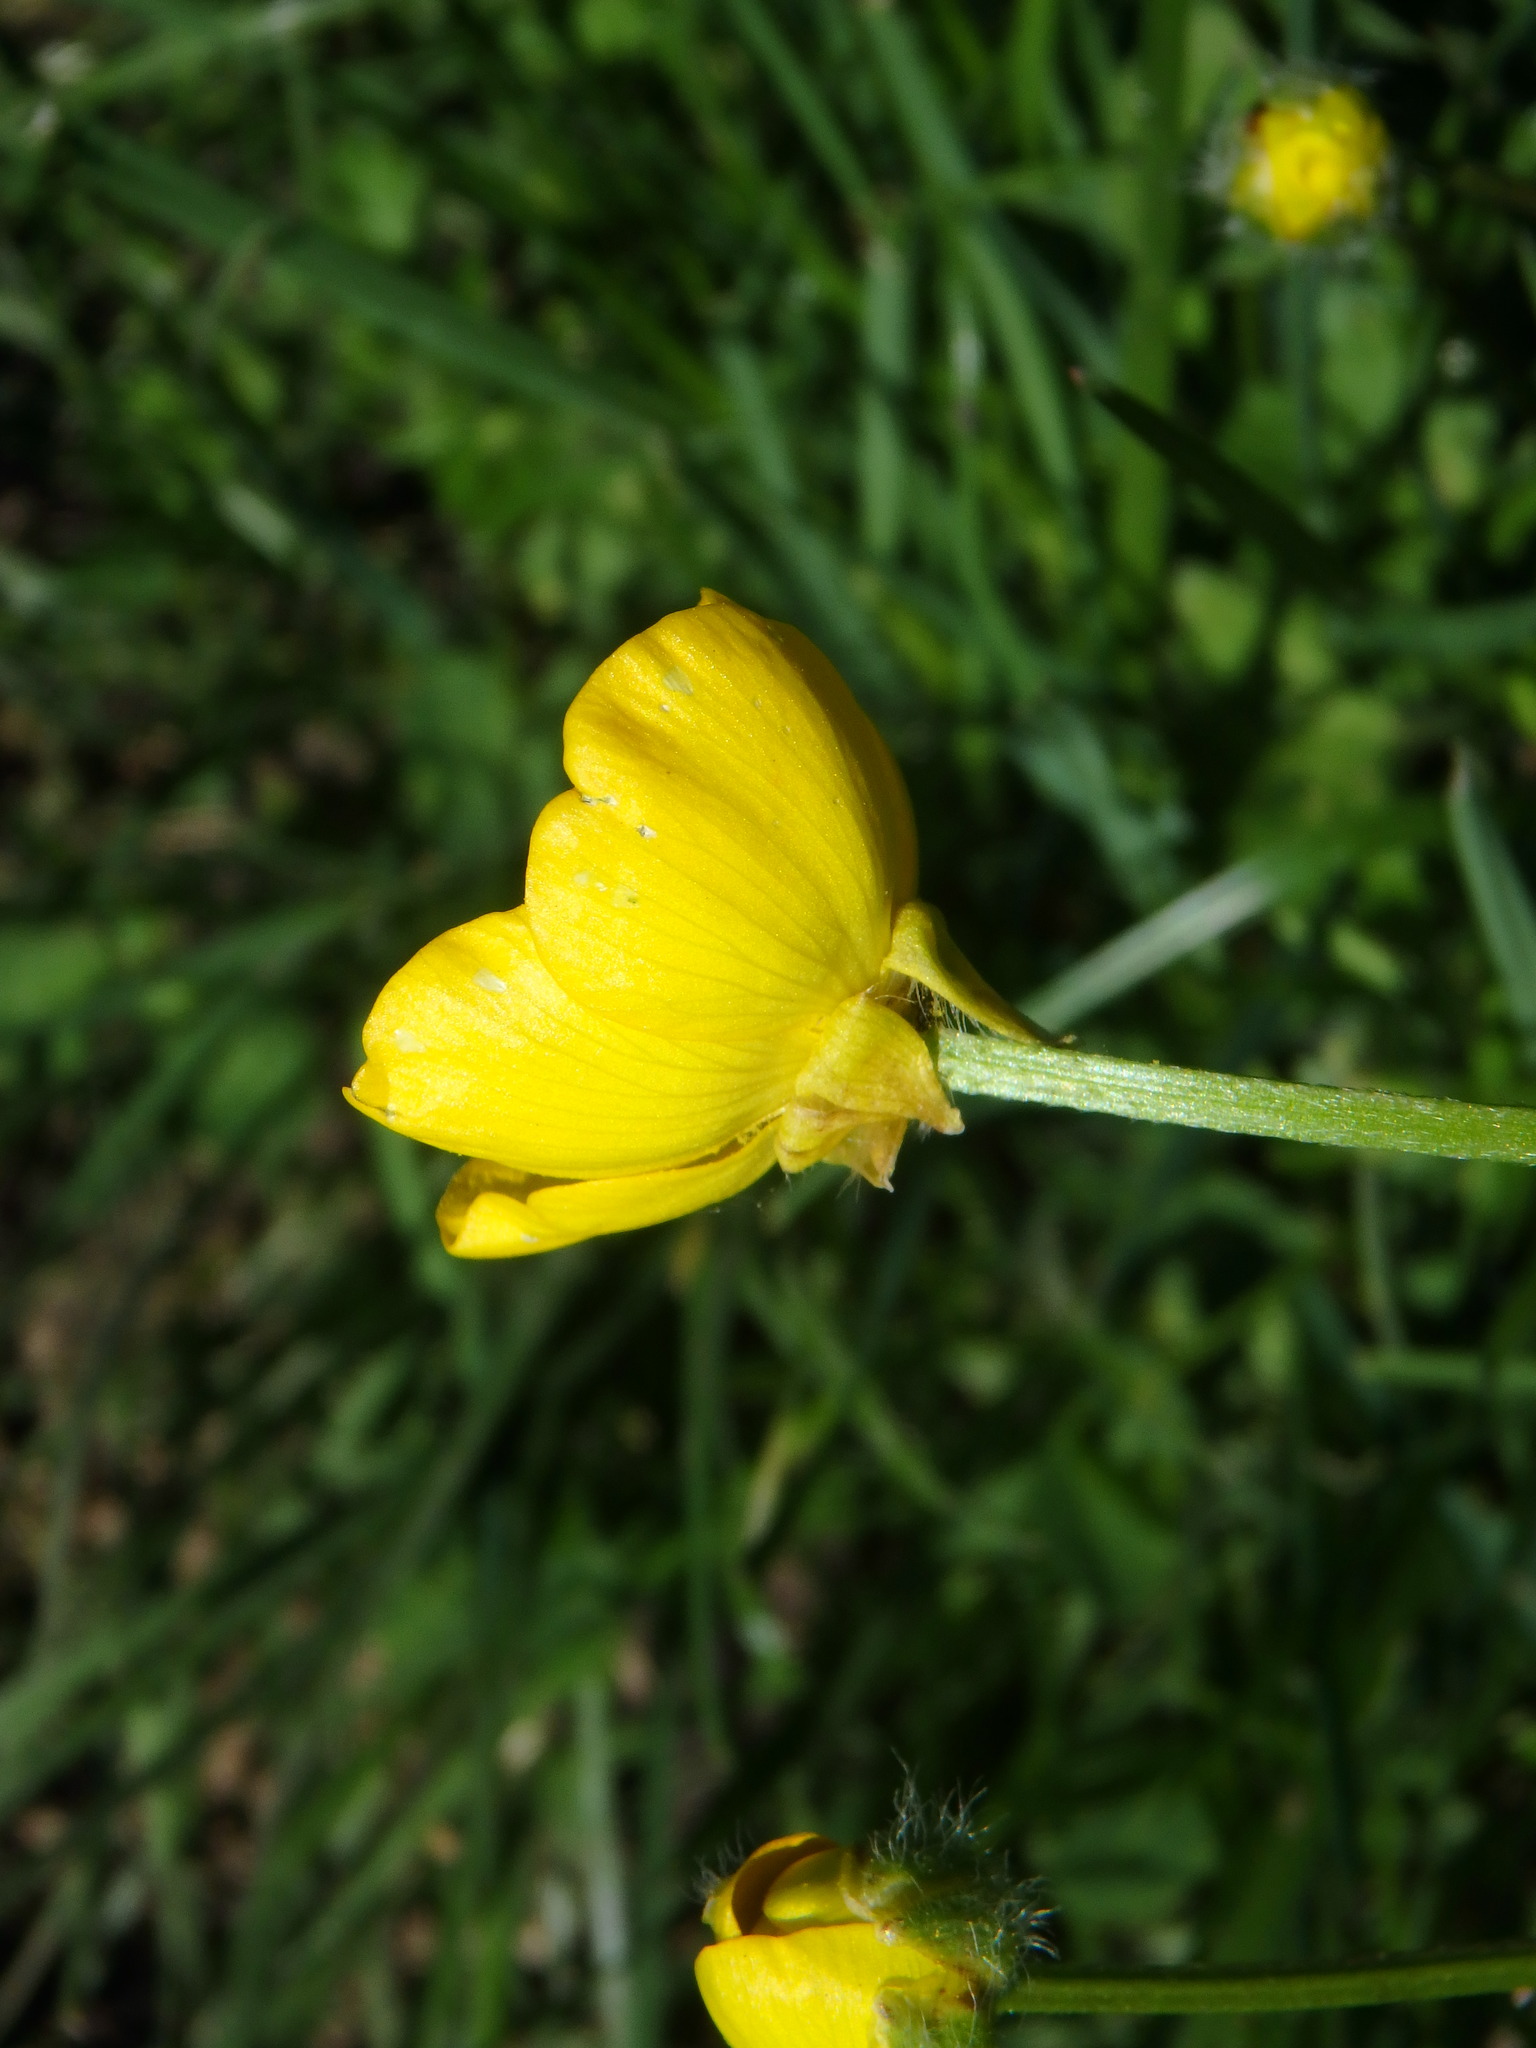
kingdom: Plantae
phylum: Tracheophyta
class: Magnoliopsida
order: Ranunculales
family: Ranunculaceae
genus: Ranunculus
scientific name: Ranunculus bulbosus
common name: Bulbous buttercup
